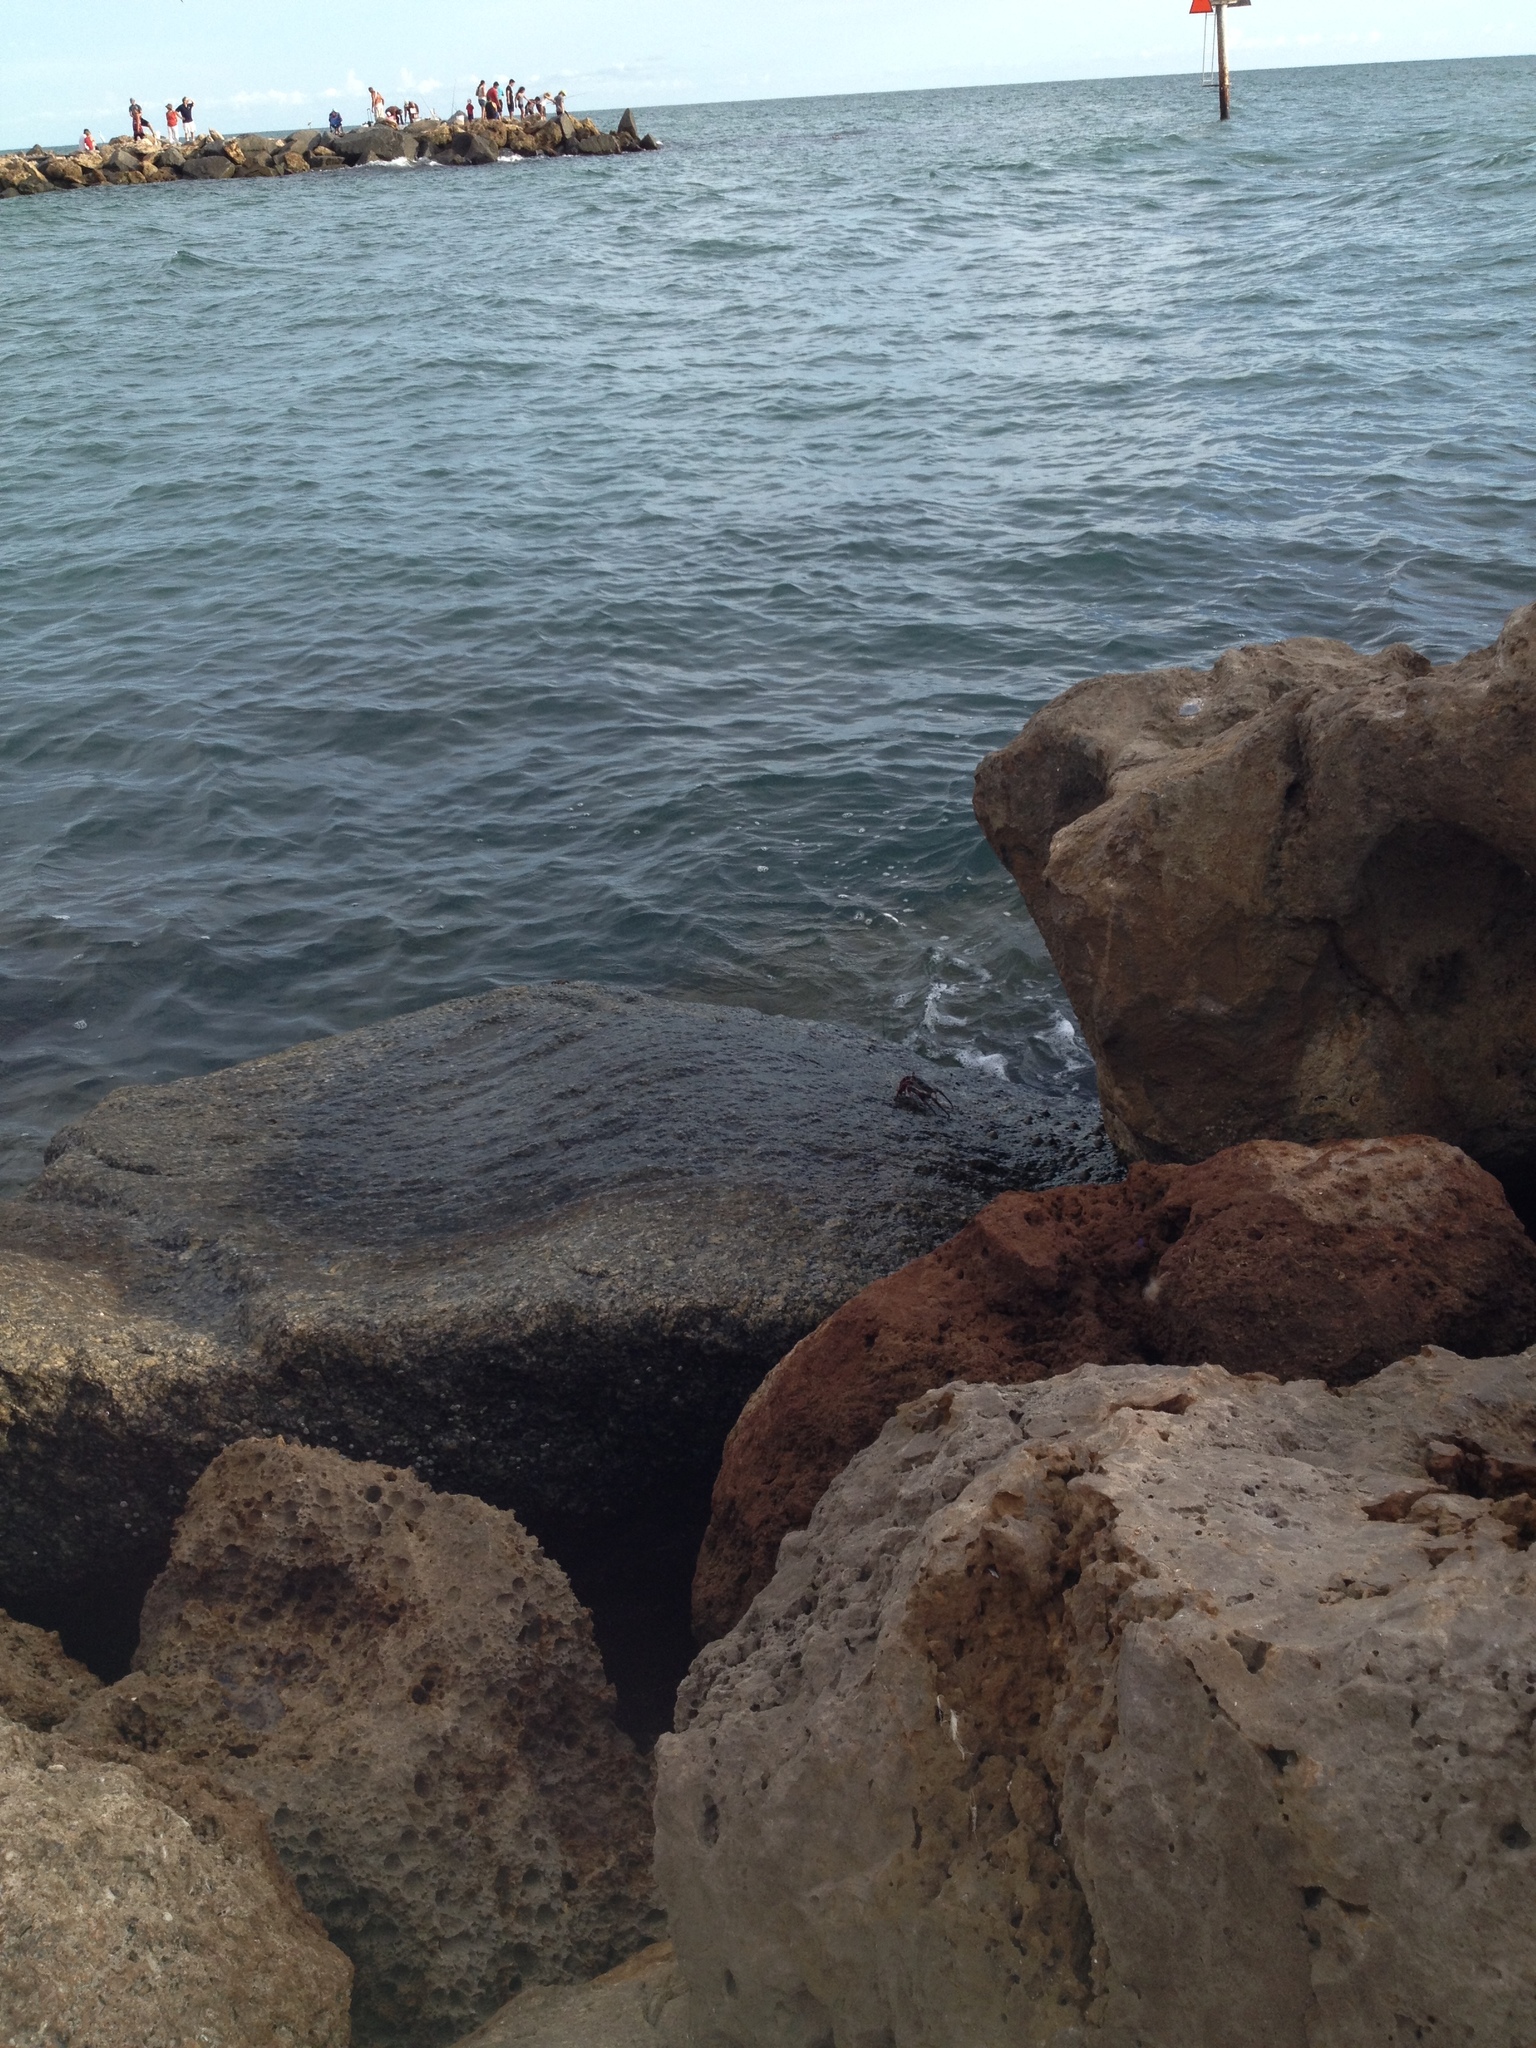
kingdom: Animalia
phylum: Arthropoda
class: Malacostraca
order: Decapoda
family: Grapsidae
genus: Grapsus
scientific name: Grapsus grapsus
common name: Sally lightfoot
